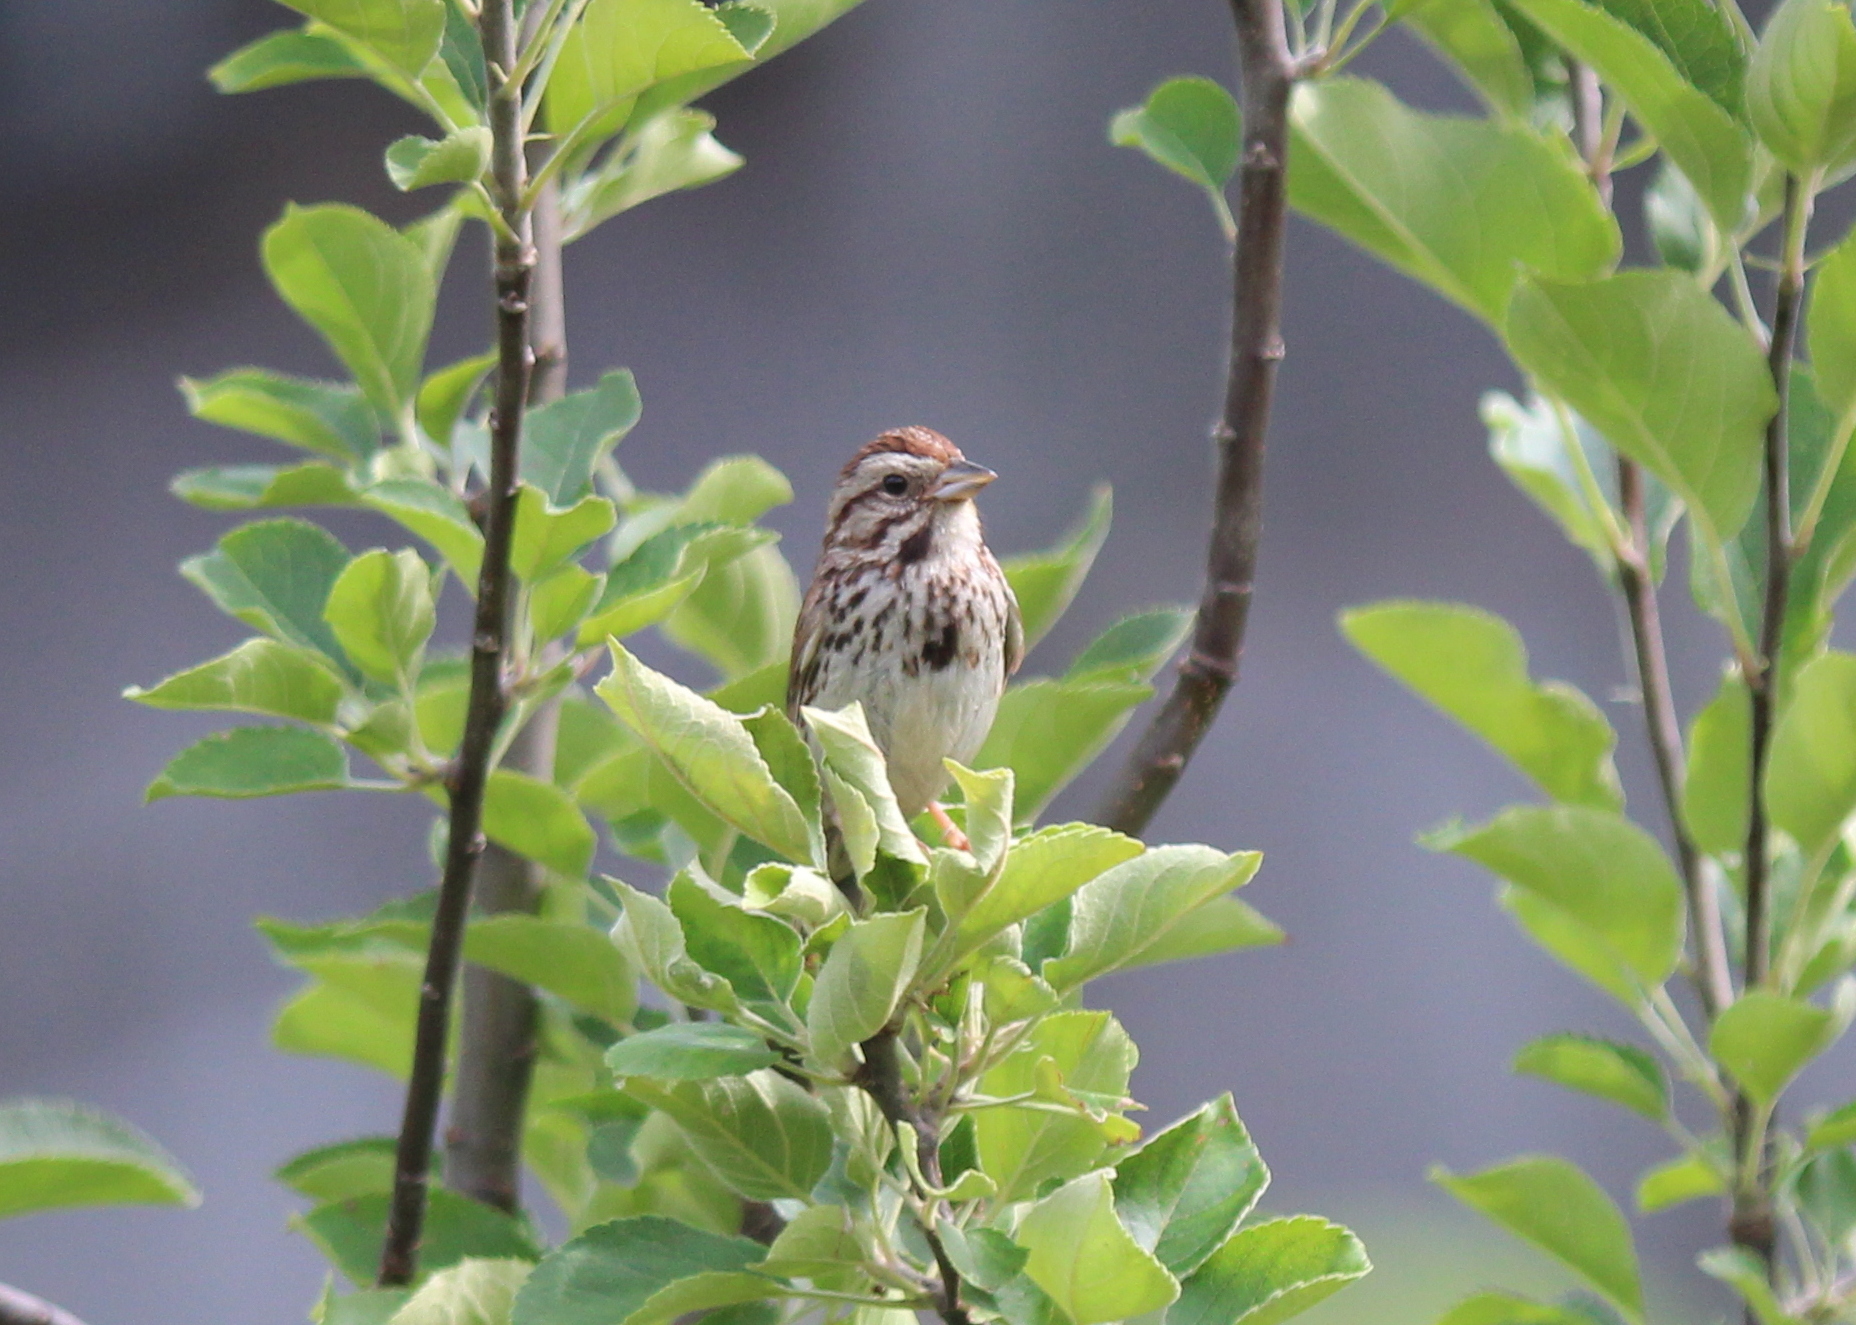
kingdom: Animalia
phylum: Chordata
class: Aves
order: Passeriformes
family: Passerellidae
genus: Melospiza
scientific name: Melospiza melodia
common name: Song sparrow
